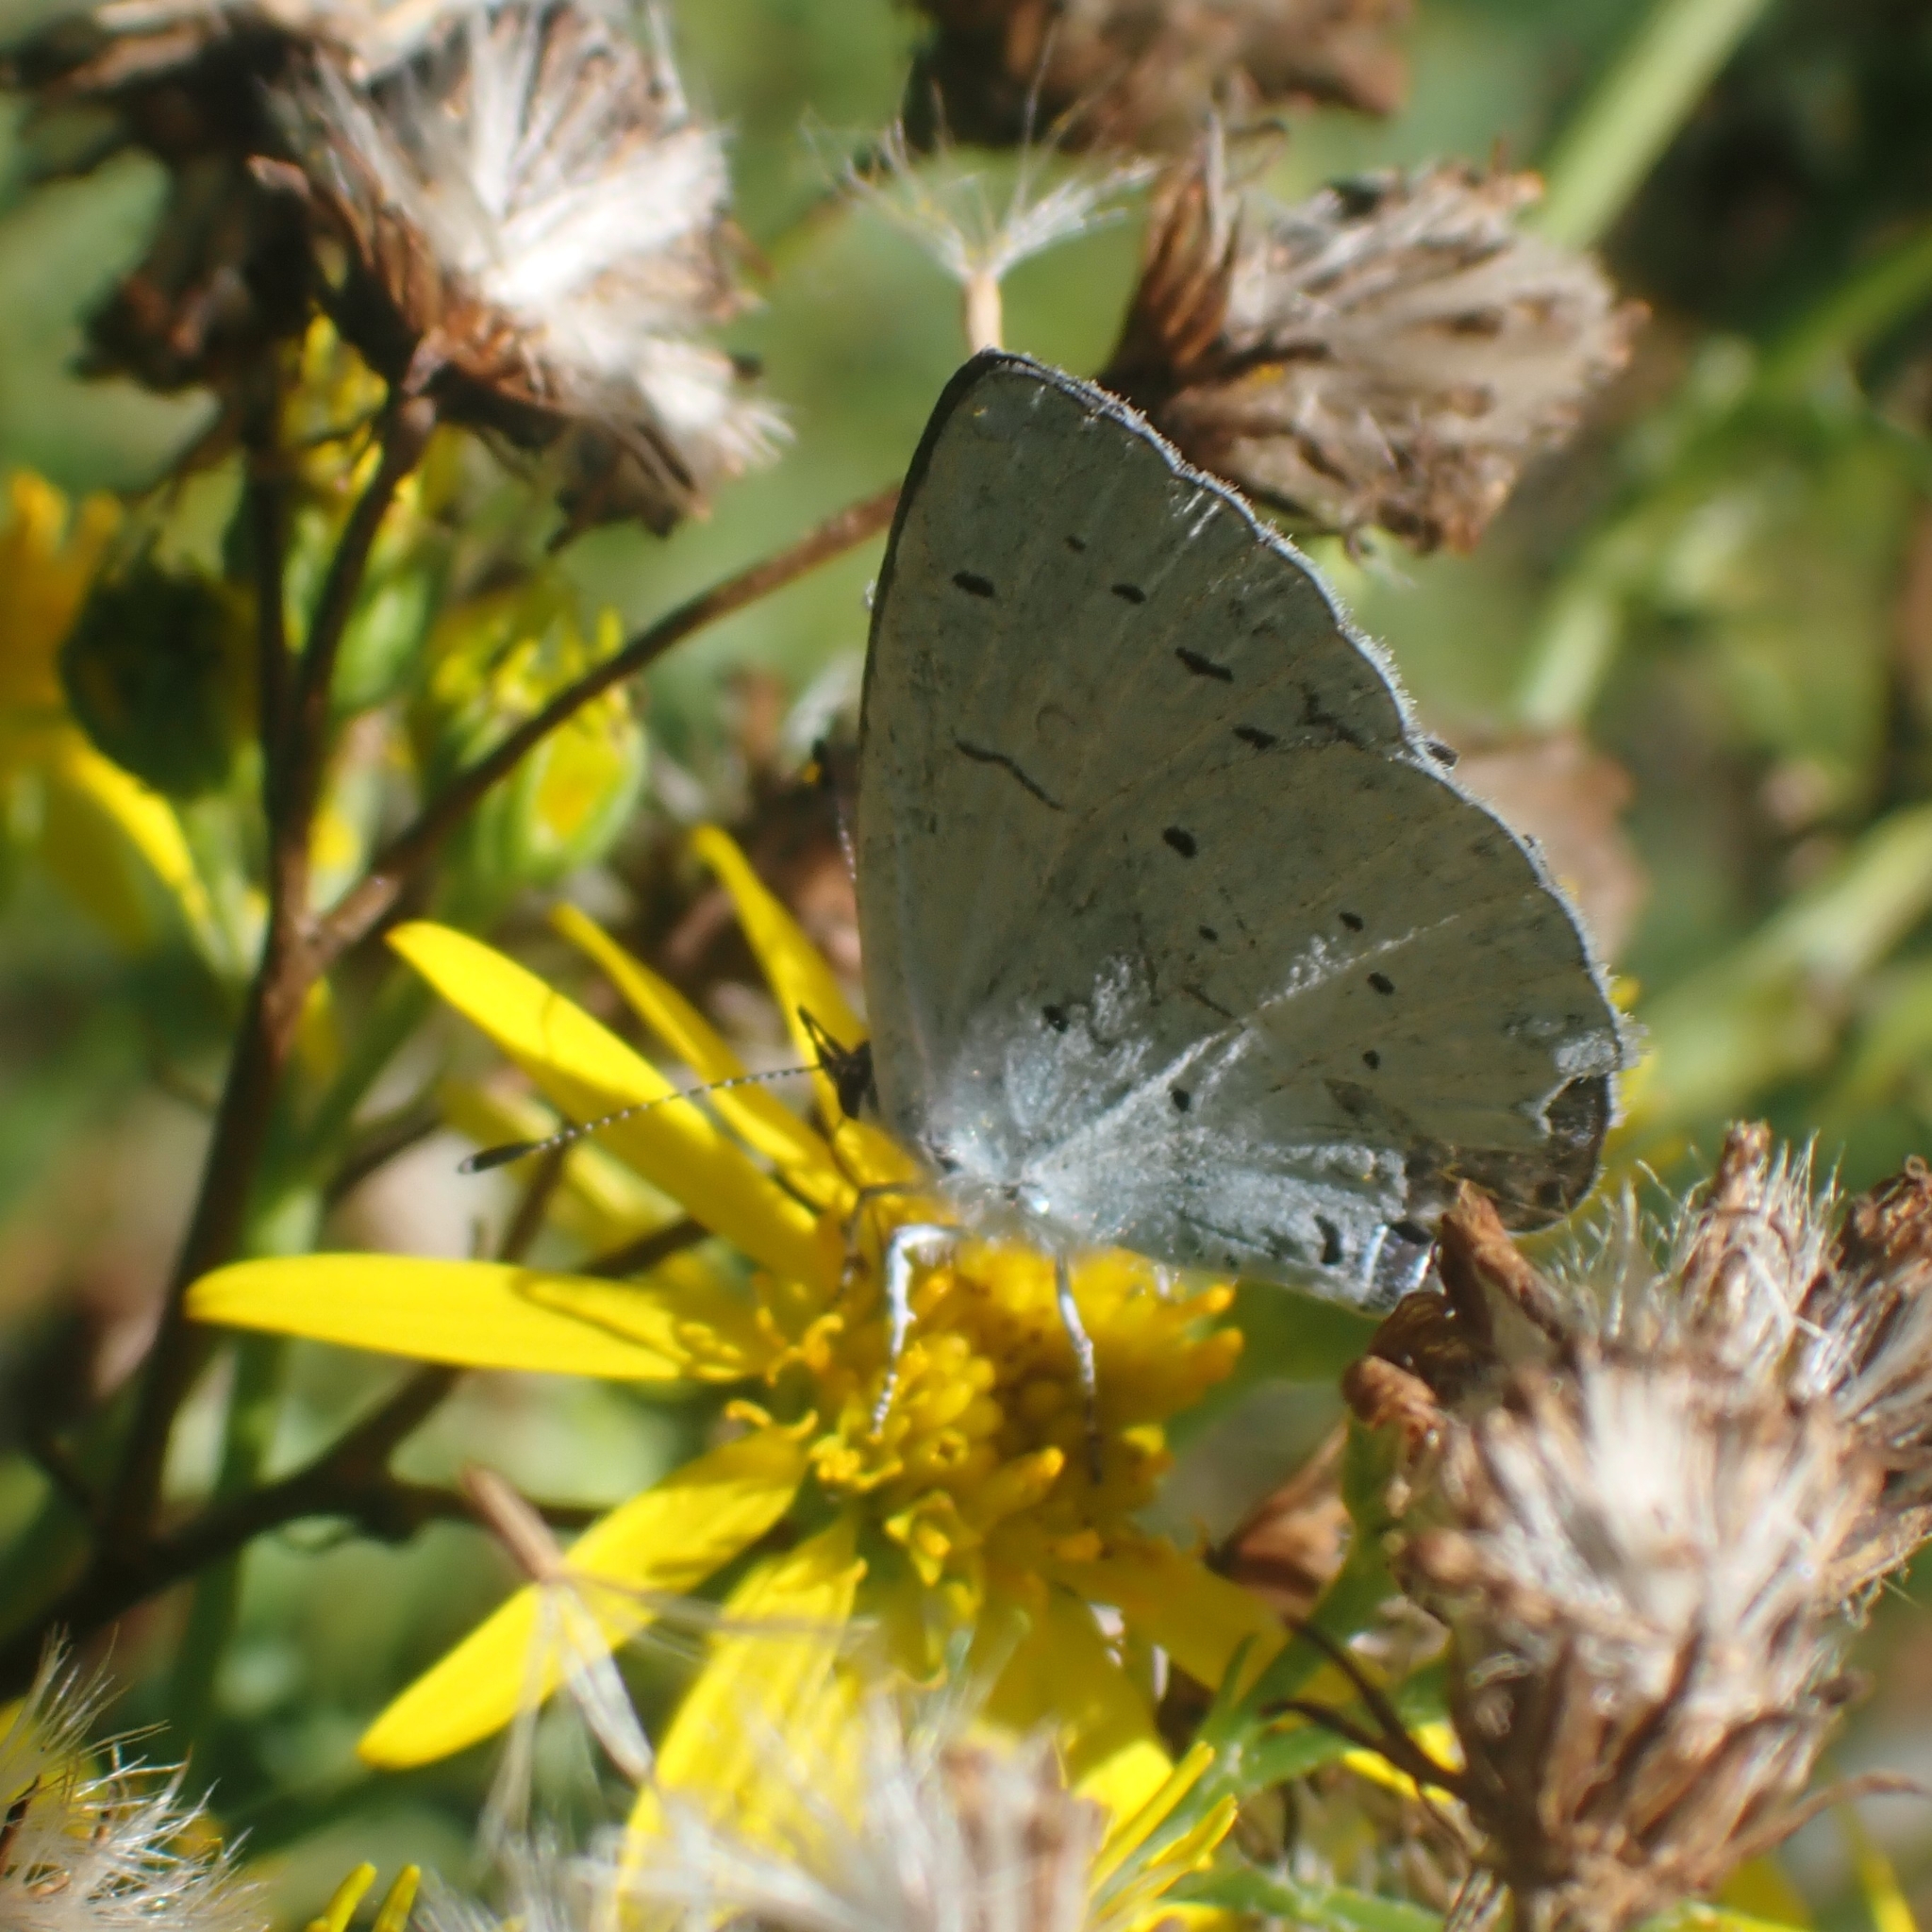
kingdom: Animalia
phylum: Arthropoda
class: Insecta
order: Lepidoptera
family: Lycaenidae
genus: Celastrina
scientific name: Celastrina argiolus
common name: Holly blue
